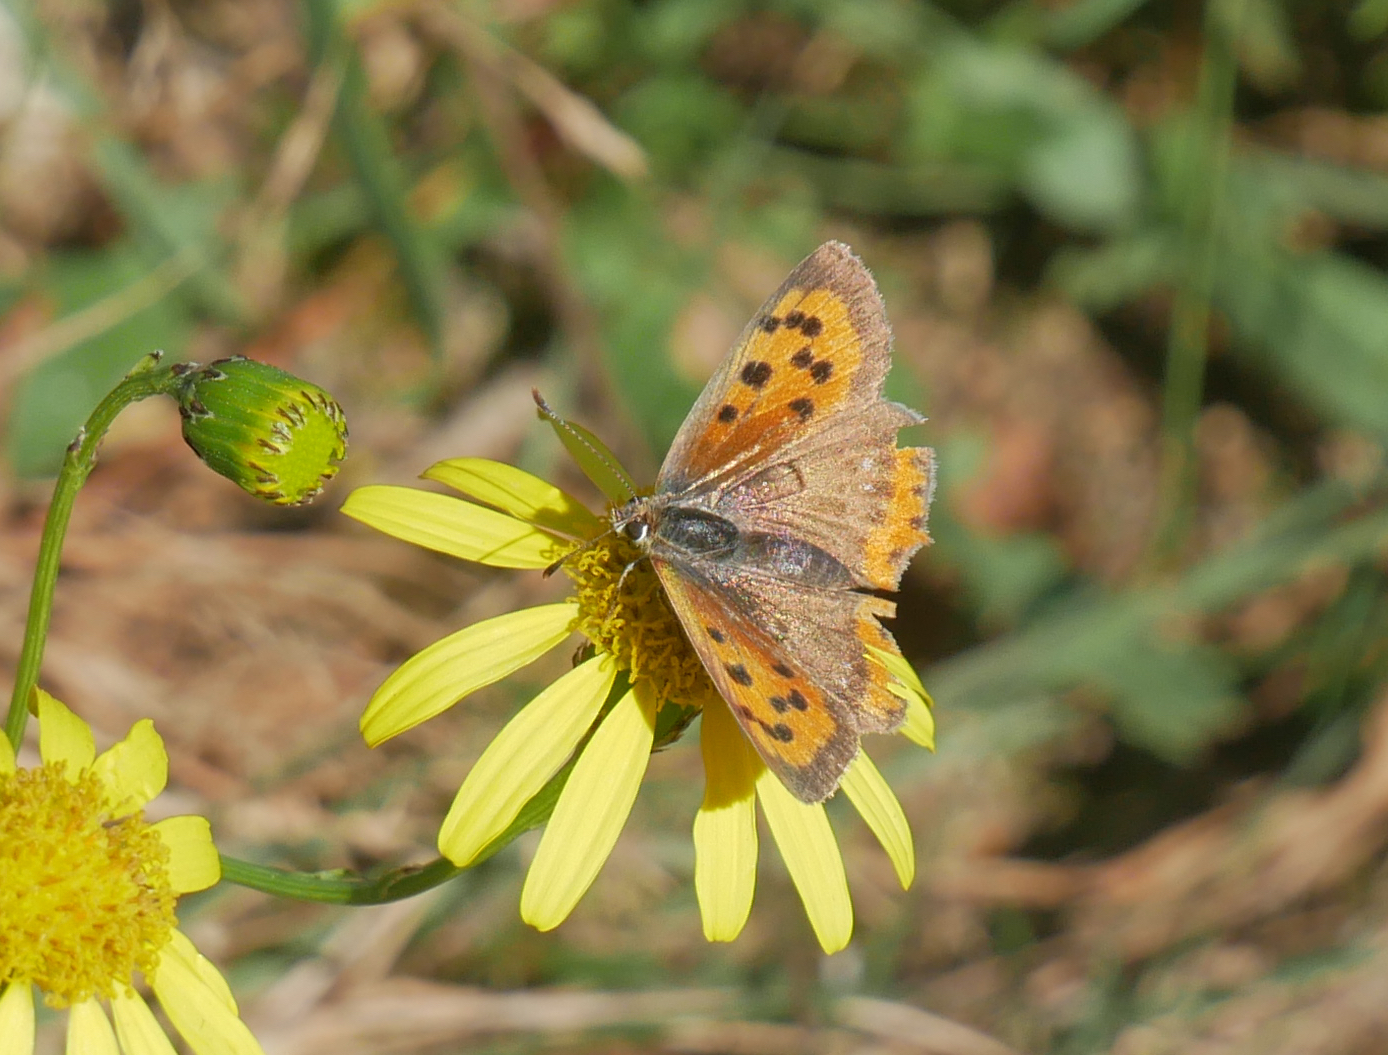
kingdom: Animalia
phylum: Arthropoda
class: Insecta
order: Lepidoptera
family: Lycaenidae
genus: Lycaena
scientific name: Lycaena phlaeas
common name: Small copper
